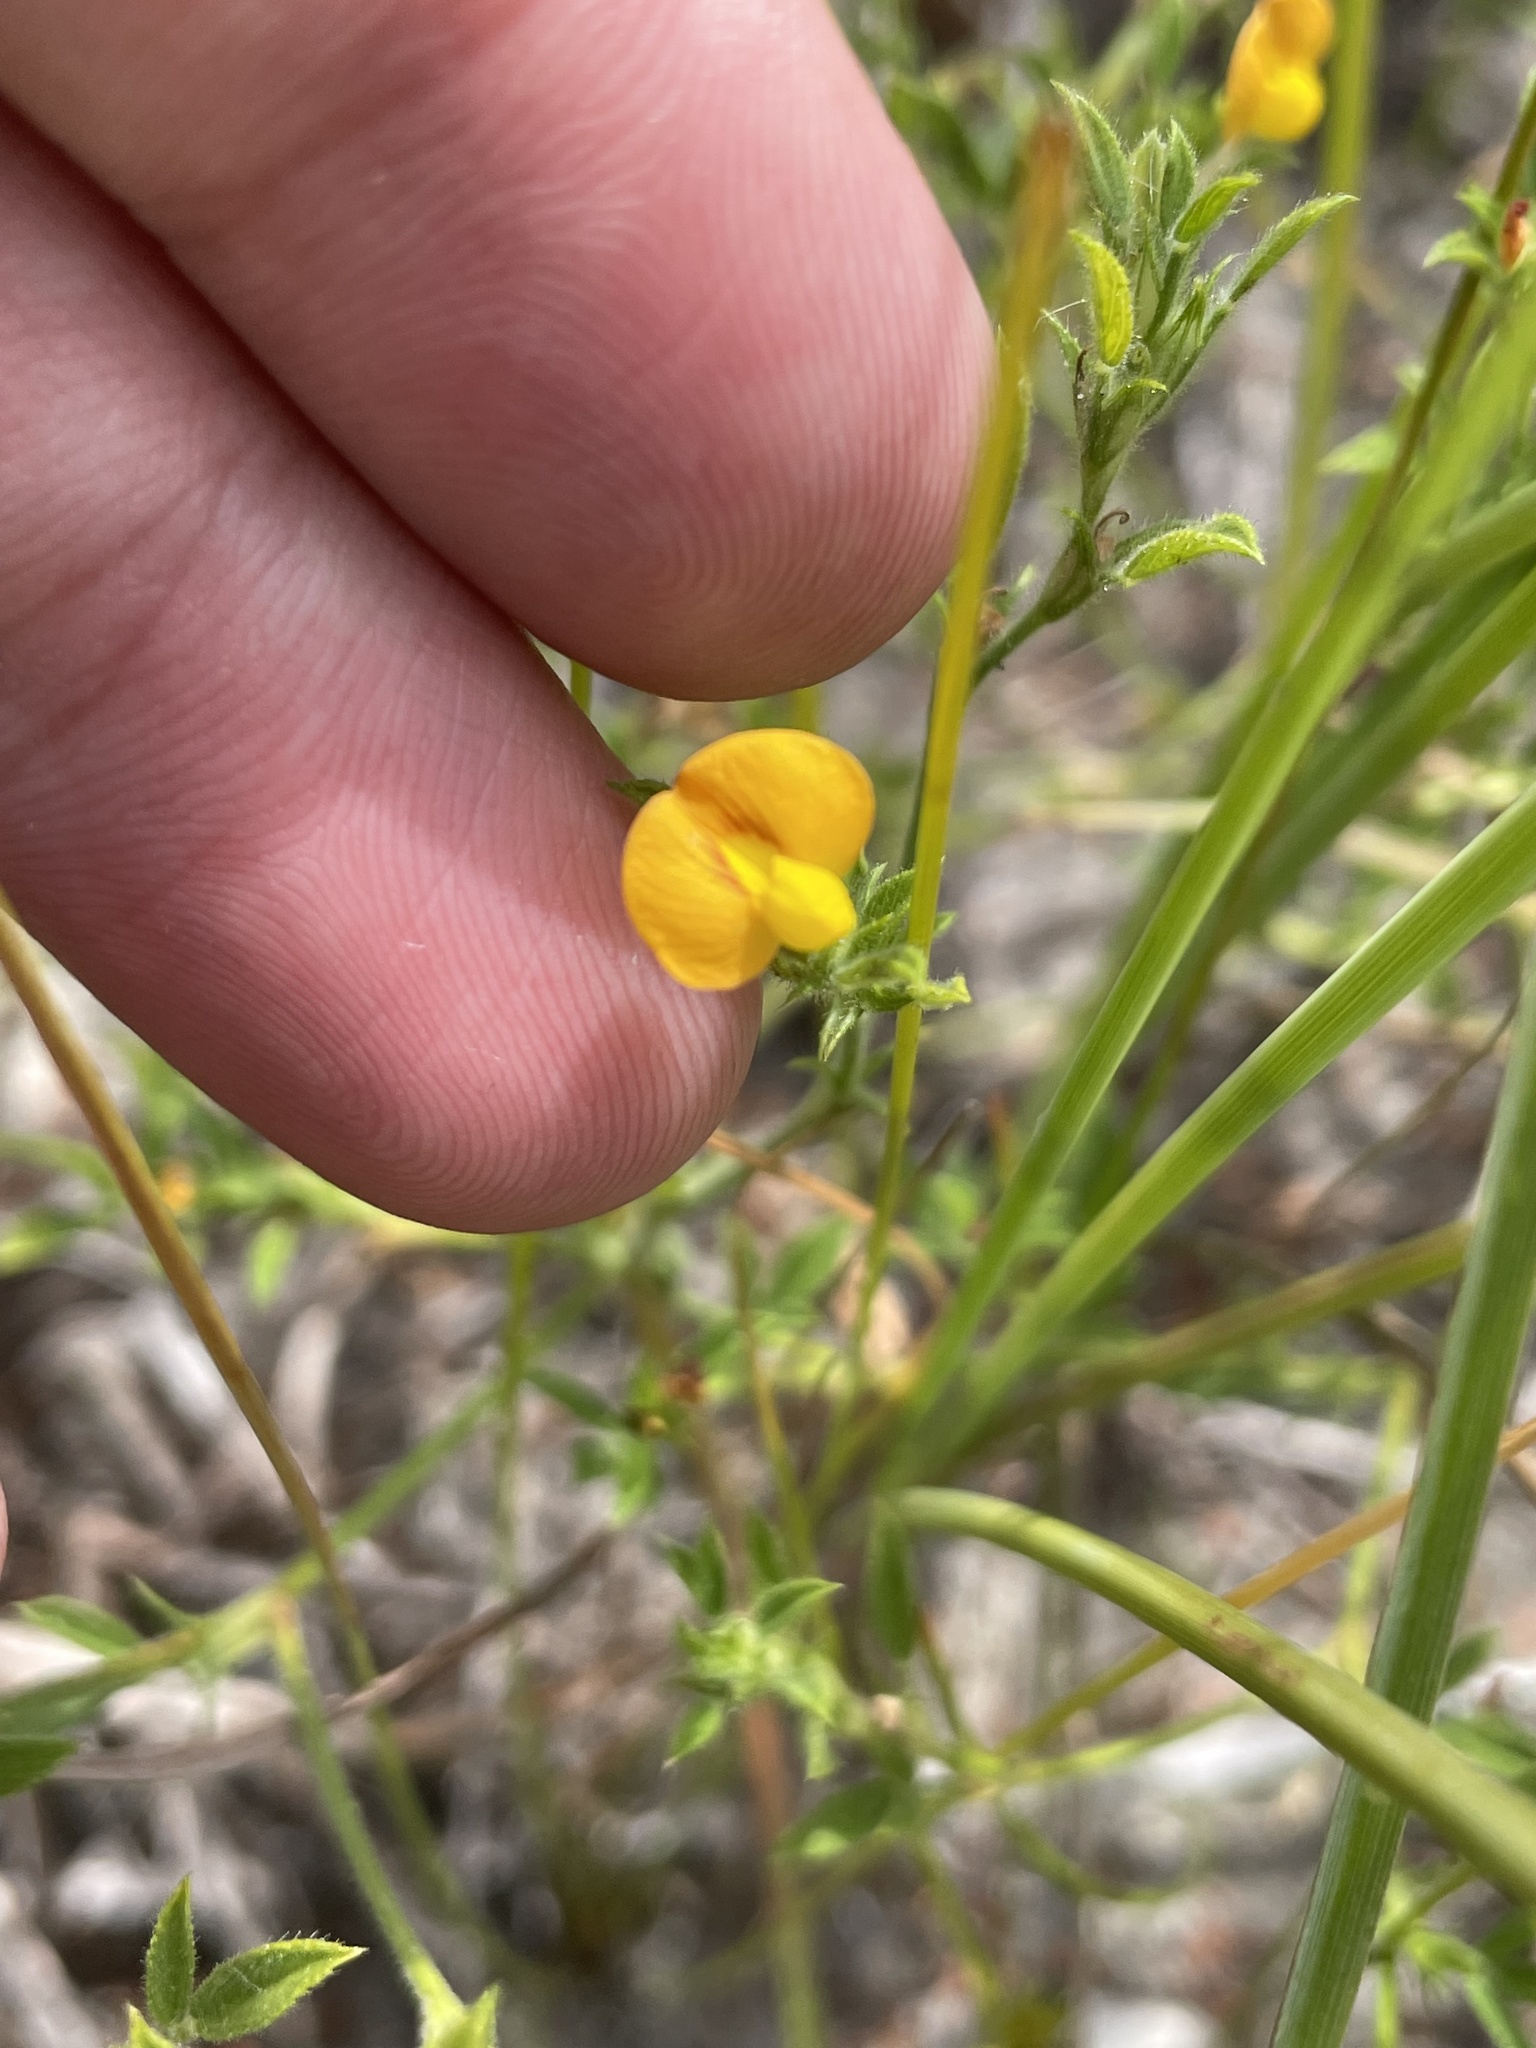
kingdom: Plantae
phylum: Tracheophyta
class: Magnoliopsida
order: Fabales
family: Fabaceae
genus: Stylosanthes
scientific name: Stylosanthes biflora
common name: Two-flower pencil-flower
